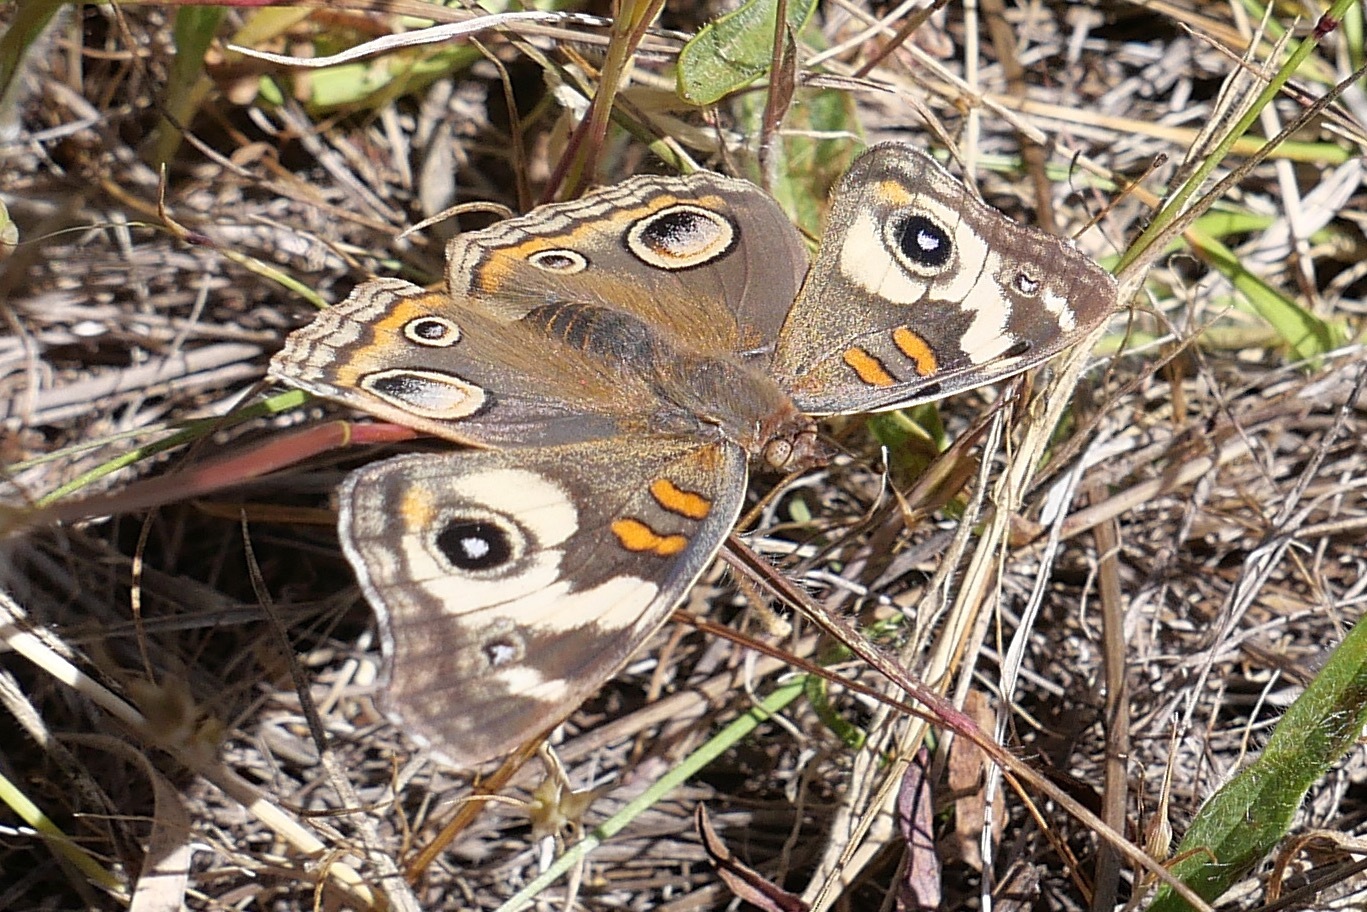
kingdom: Animalia
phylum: Arthropoda
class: Insecta
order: Lepidoptera
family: Nymphalidae
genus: Junonia
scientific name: Junonia grisea
